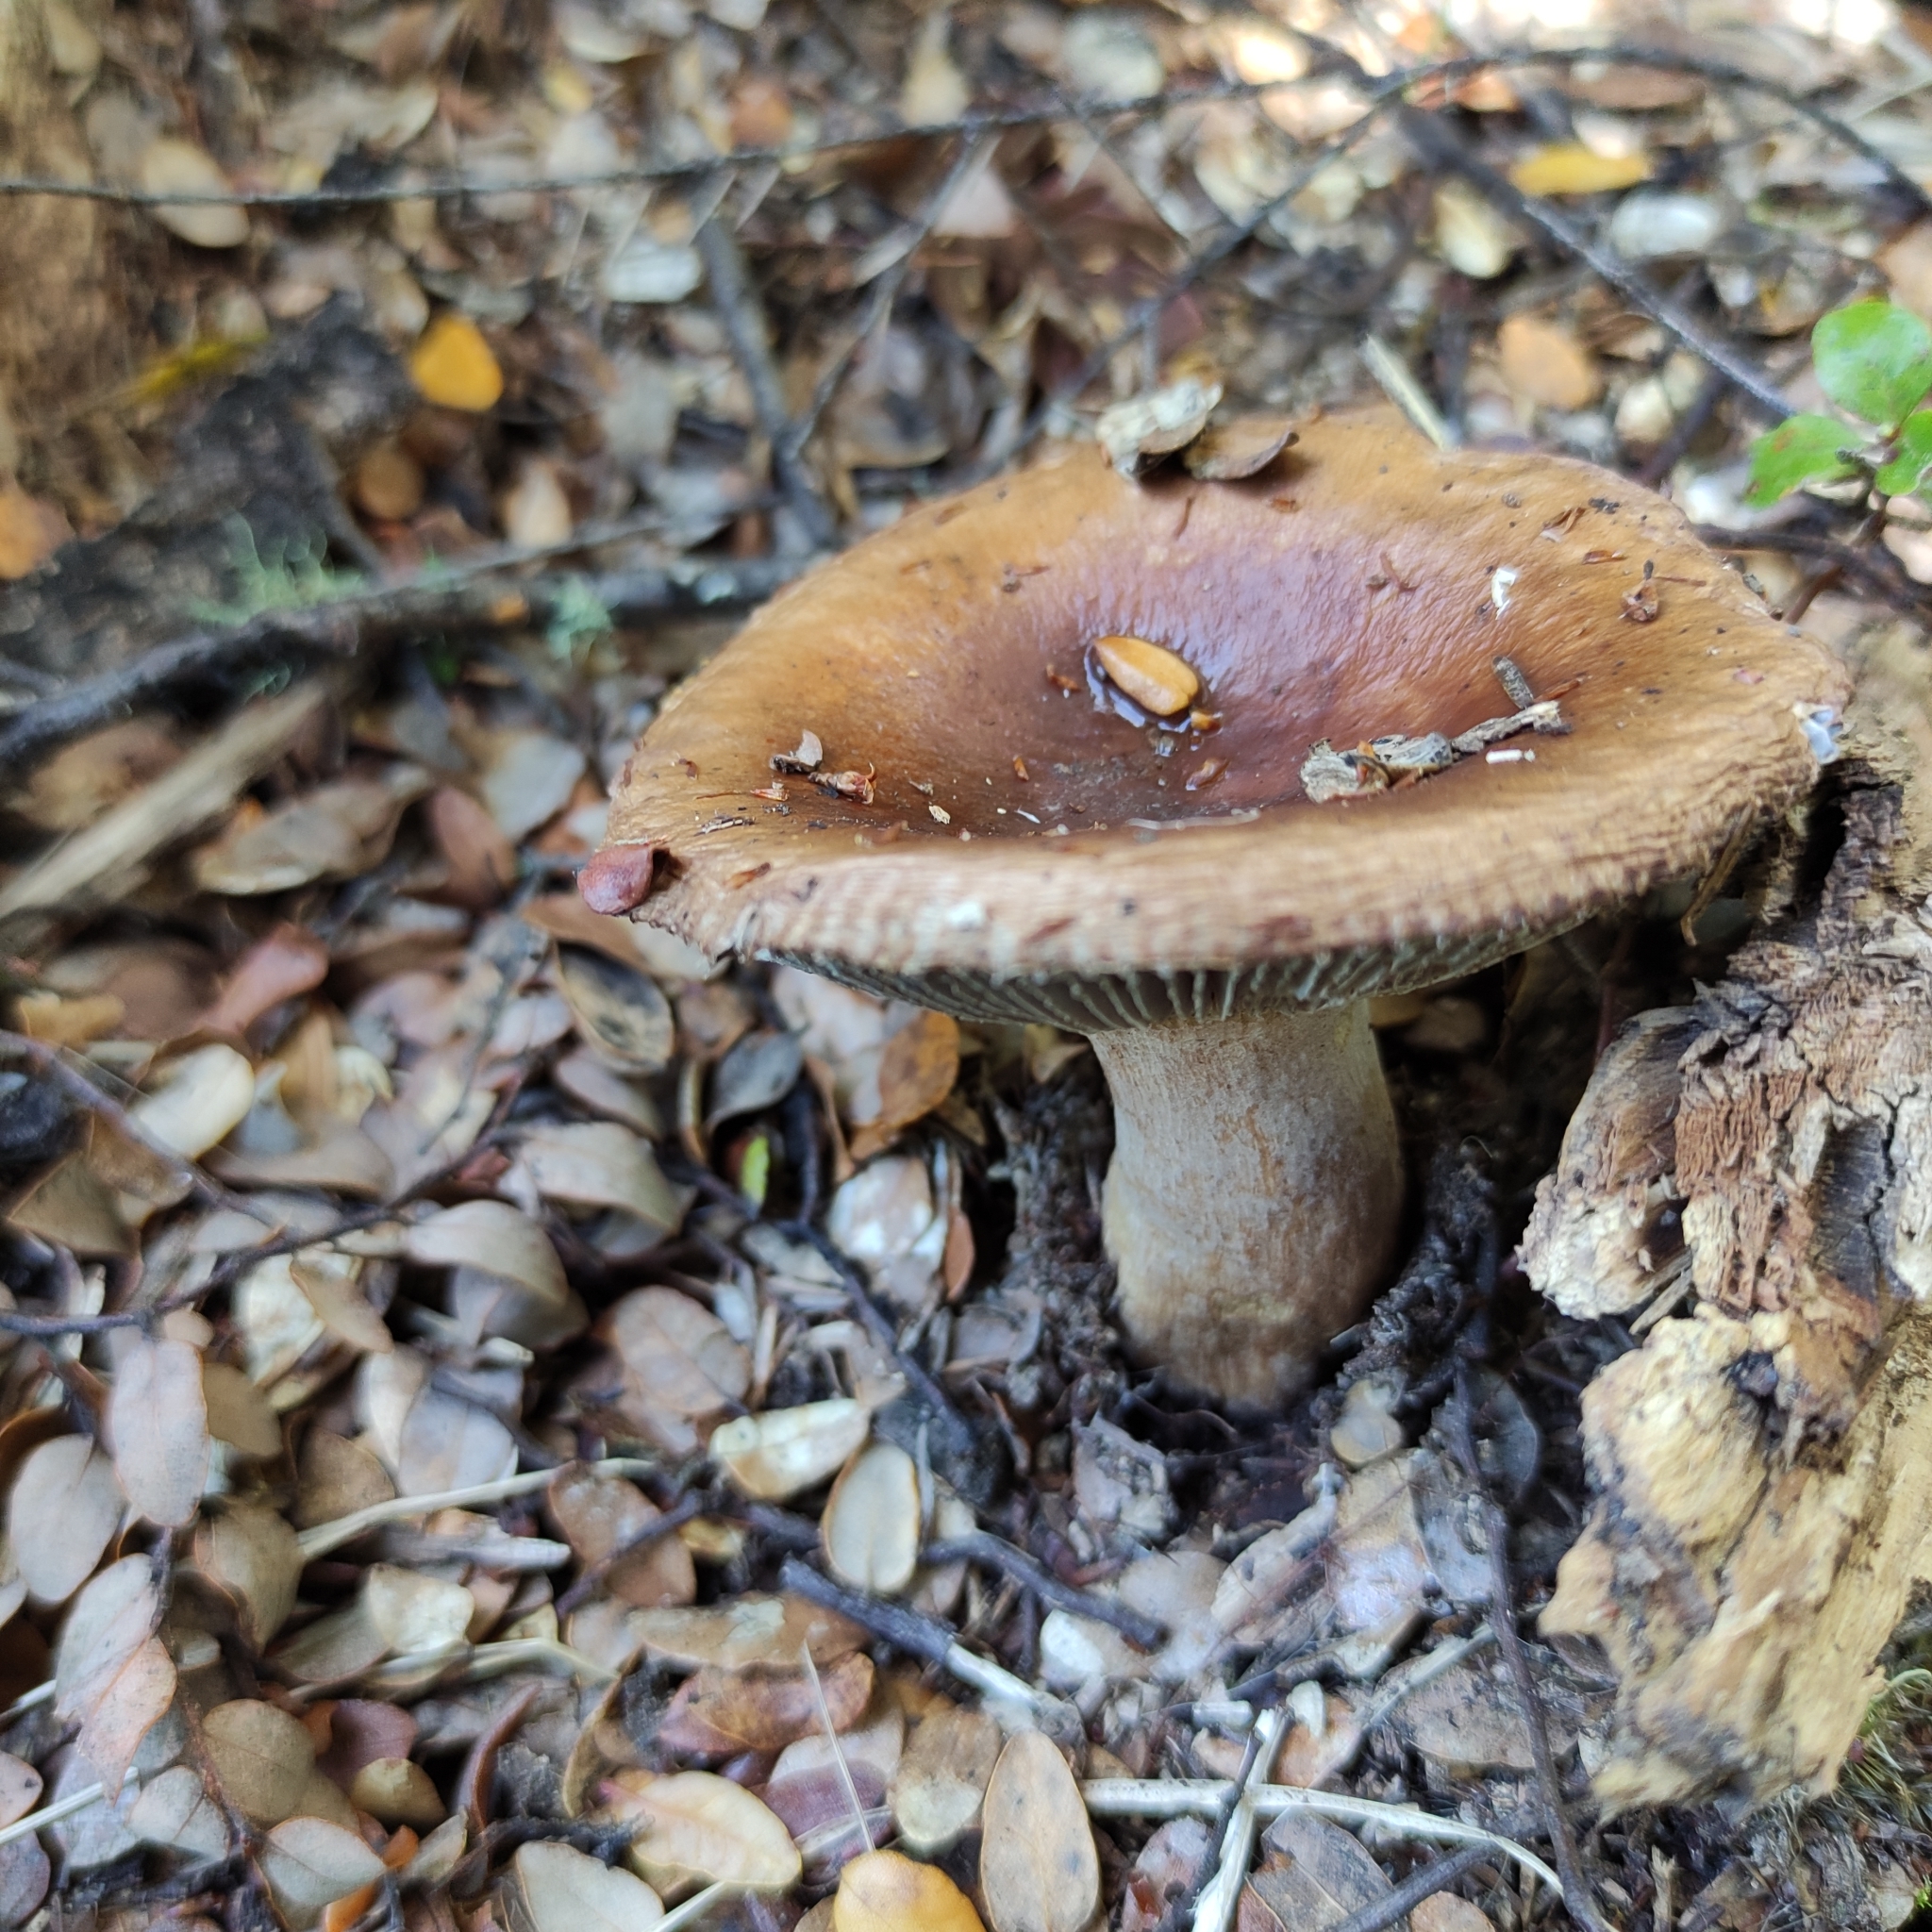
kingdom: Fungi
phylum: Basidiomycota
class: Agaricomycetes
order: Russulales
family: Russulaceae
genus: Russula
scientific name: Russula griseobrunnea
